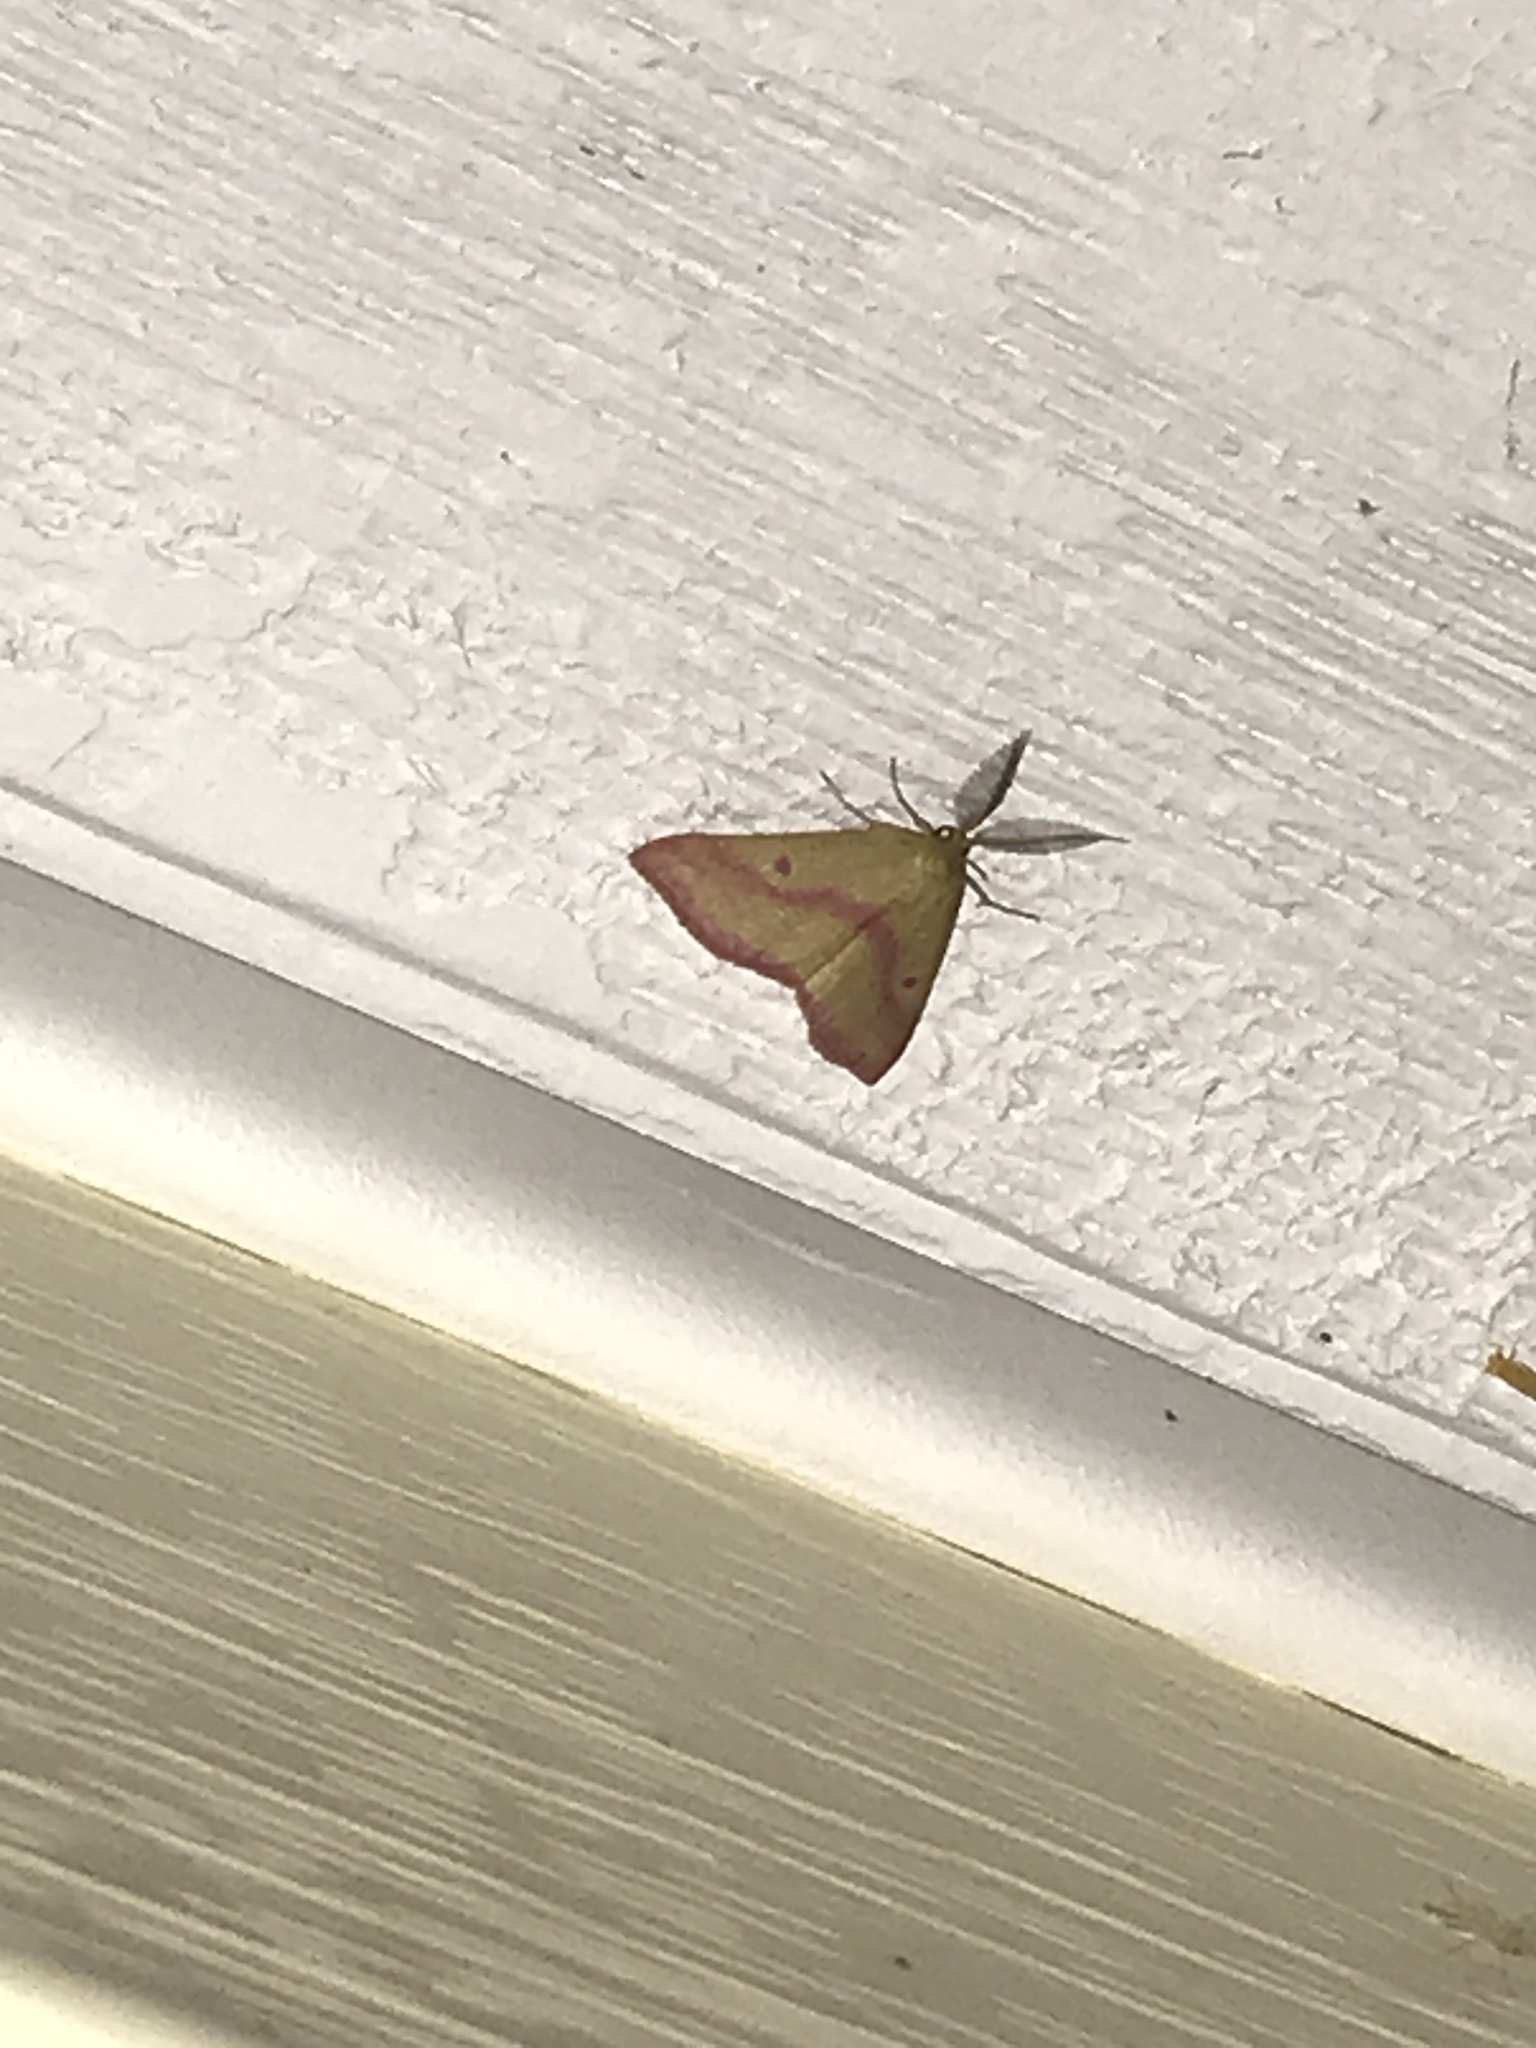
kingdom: Animalia
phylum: Arthropoda
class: Insecta
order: Lepidoptera
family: Geometridae
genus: Haematopis
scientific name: Haematopis grataria
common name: Chickweed geometer
